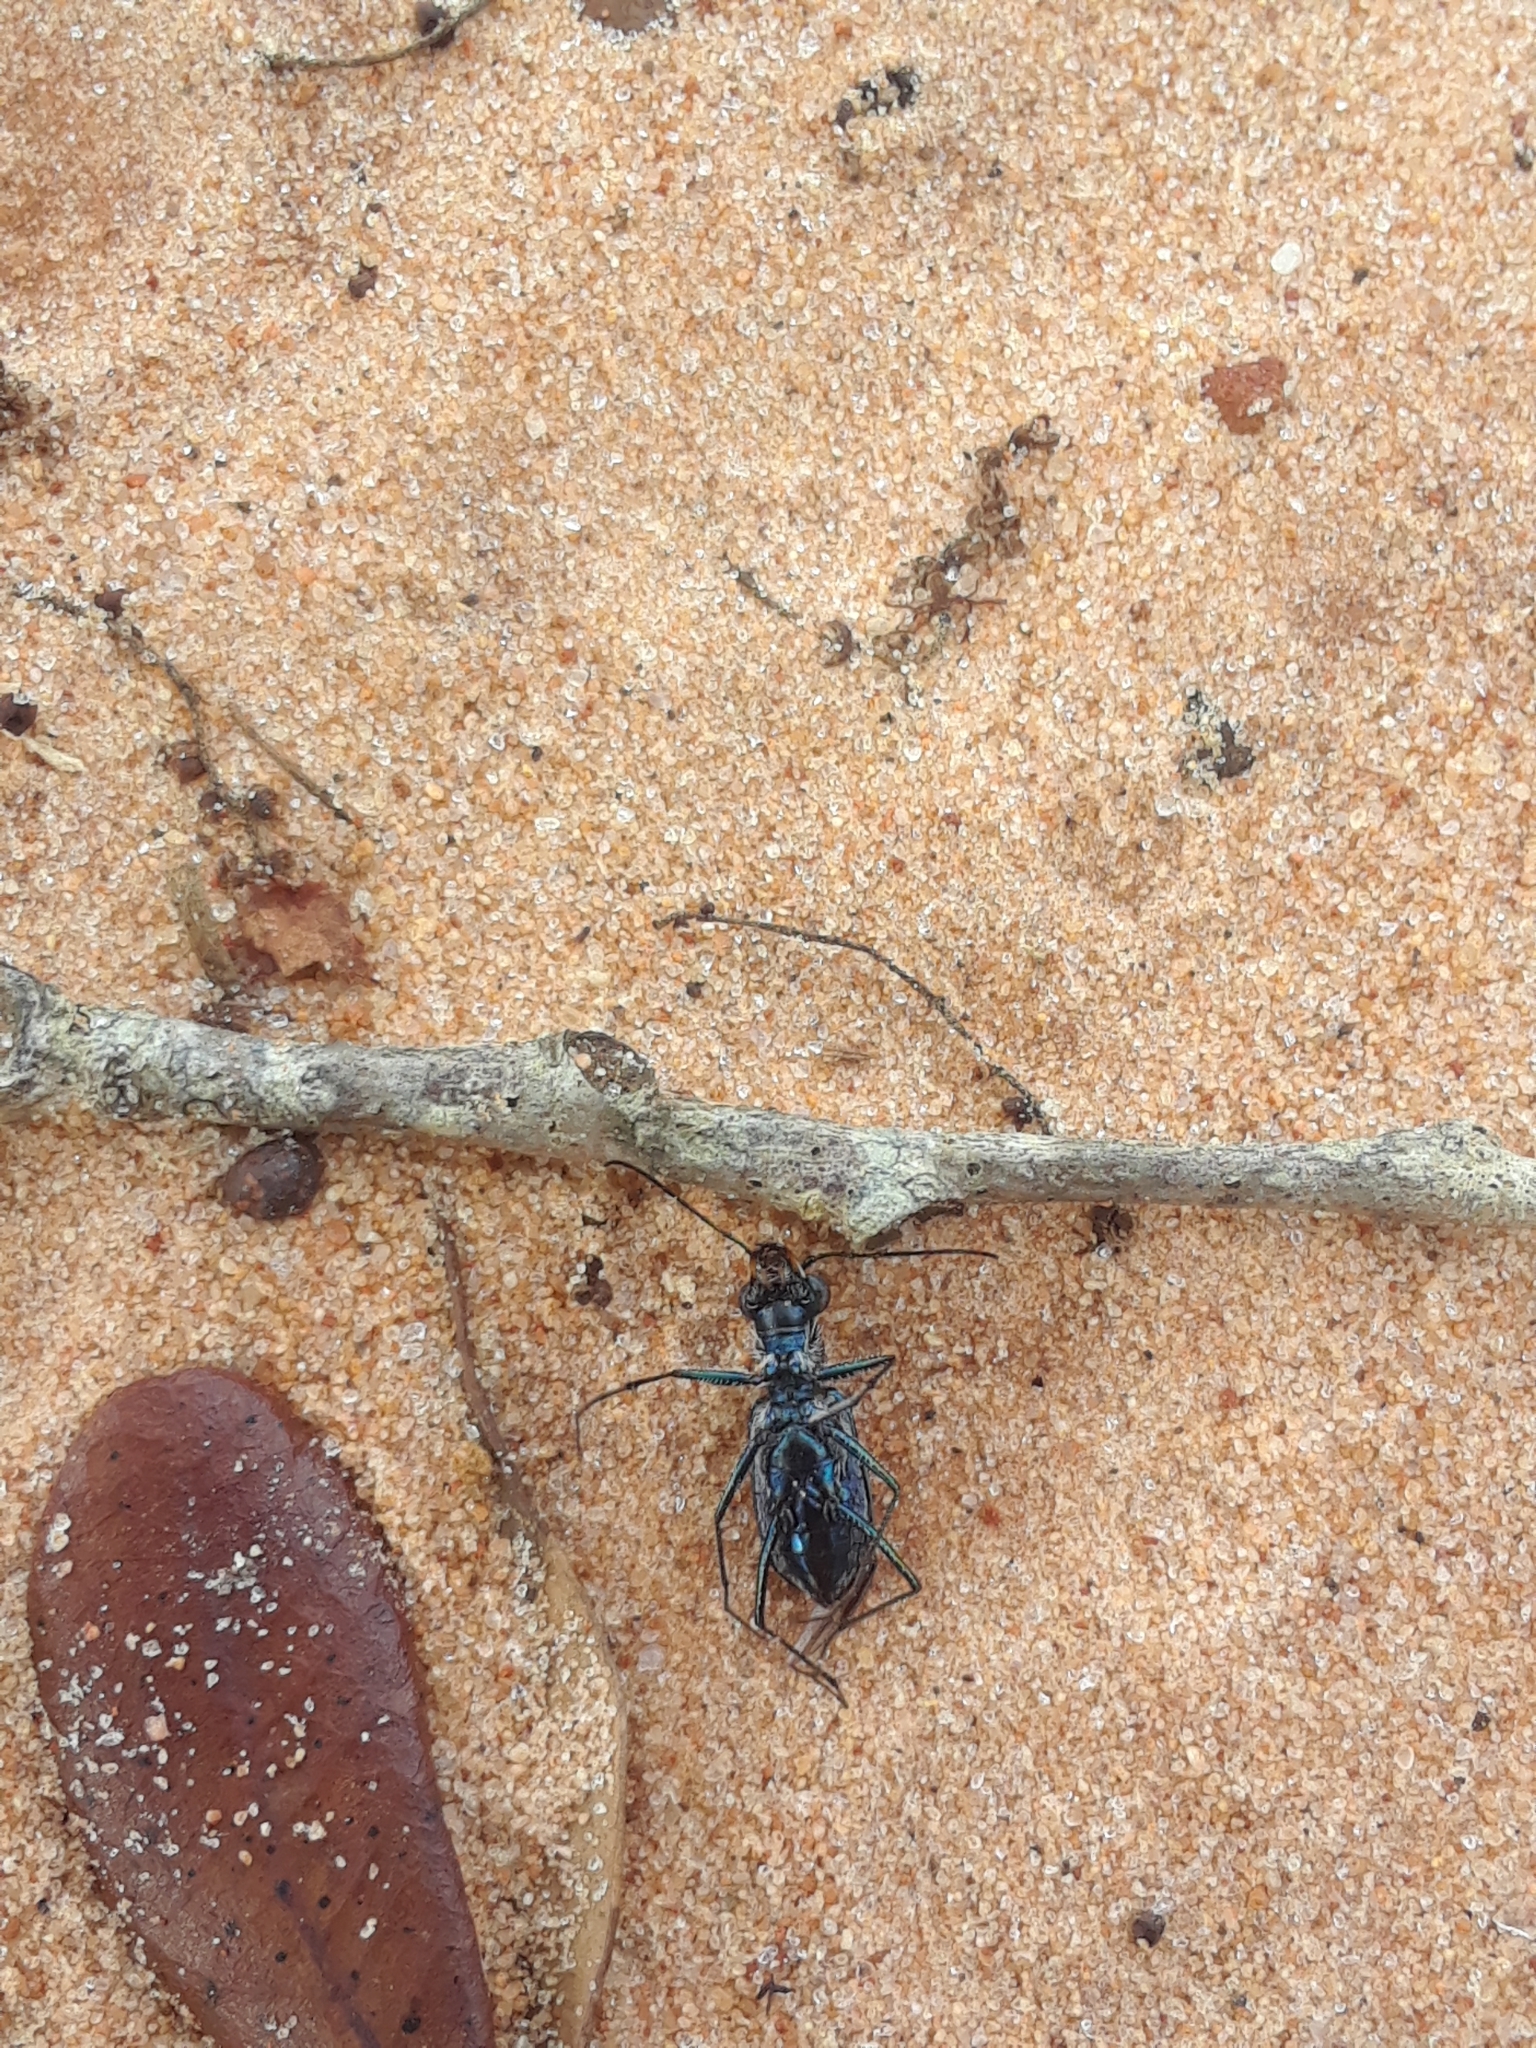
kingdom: Animalia
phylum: Arthropoda
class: Insecta
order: Coleoptera
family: Carabidae
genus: Cicindela
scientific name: Cicindela punctulata
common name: Punctured tiger beetle
